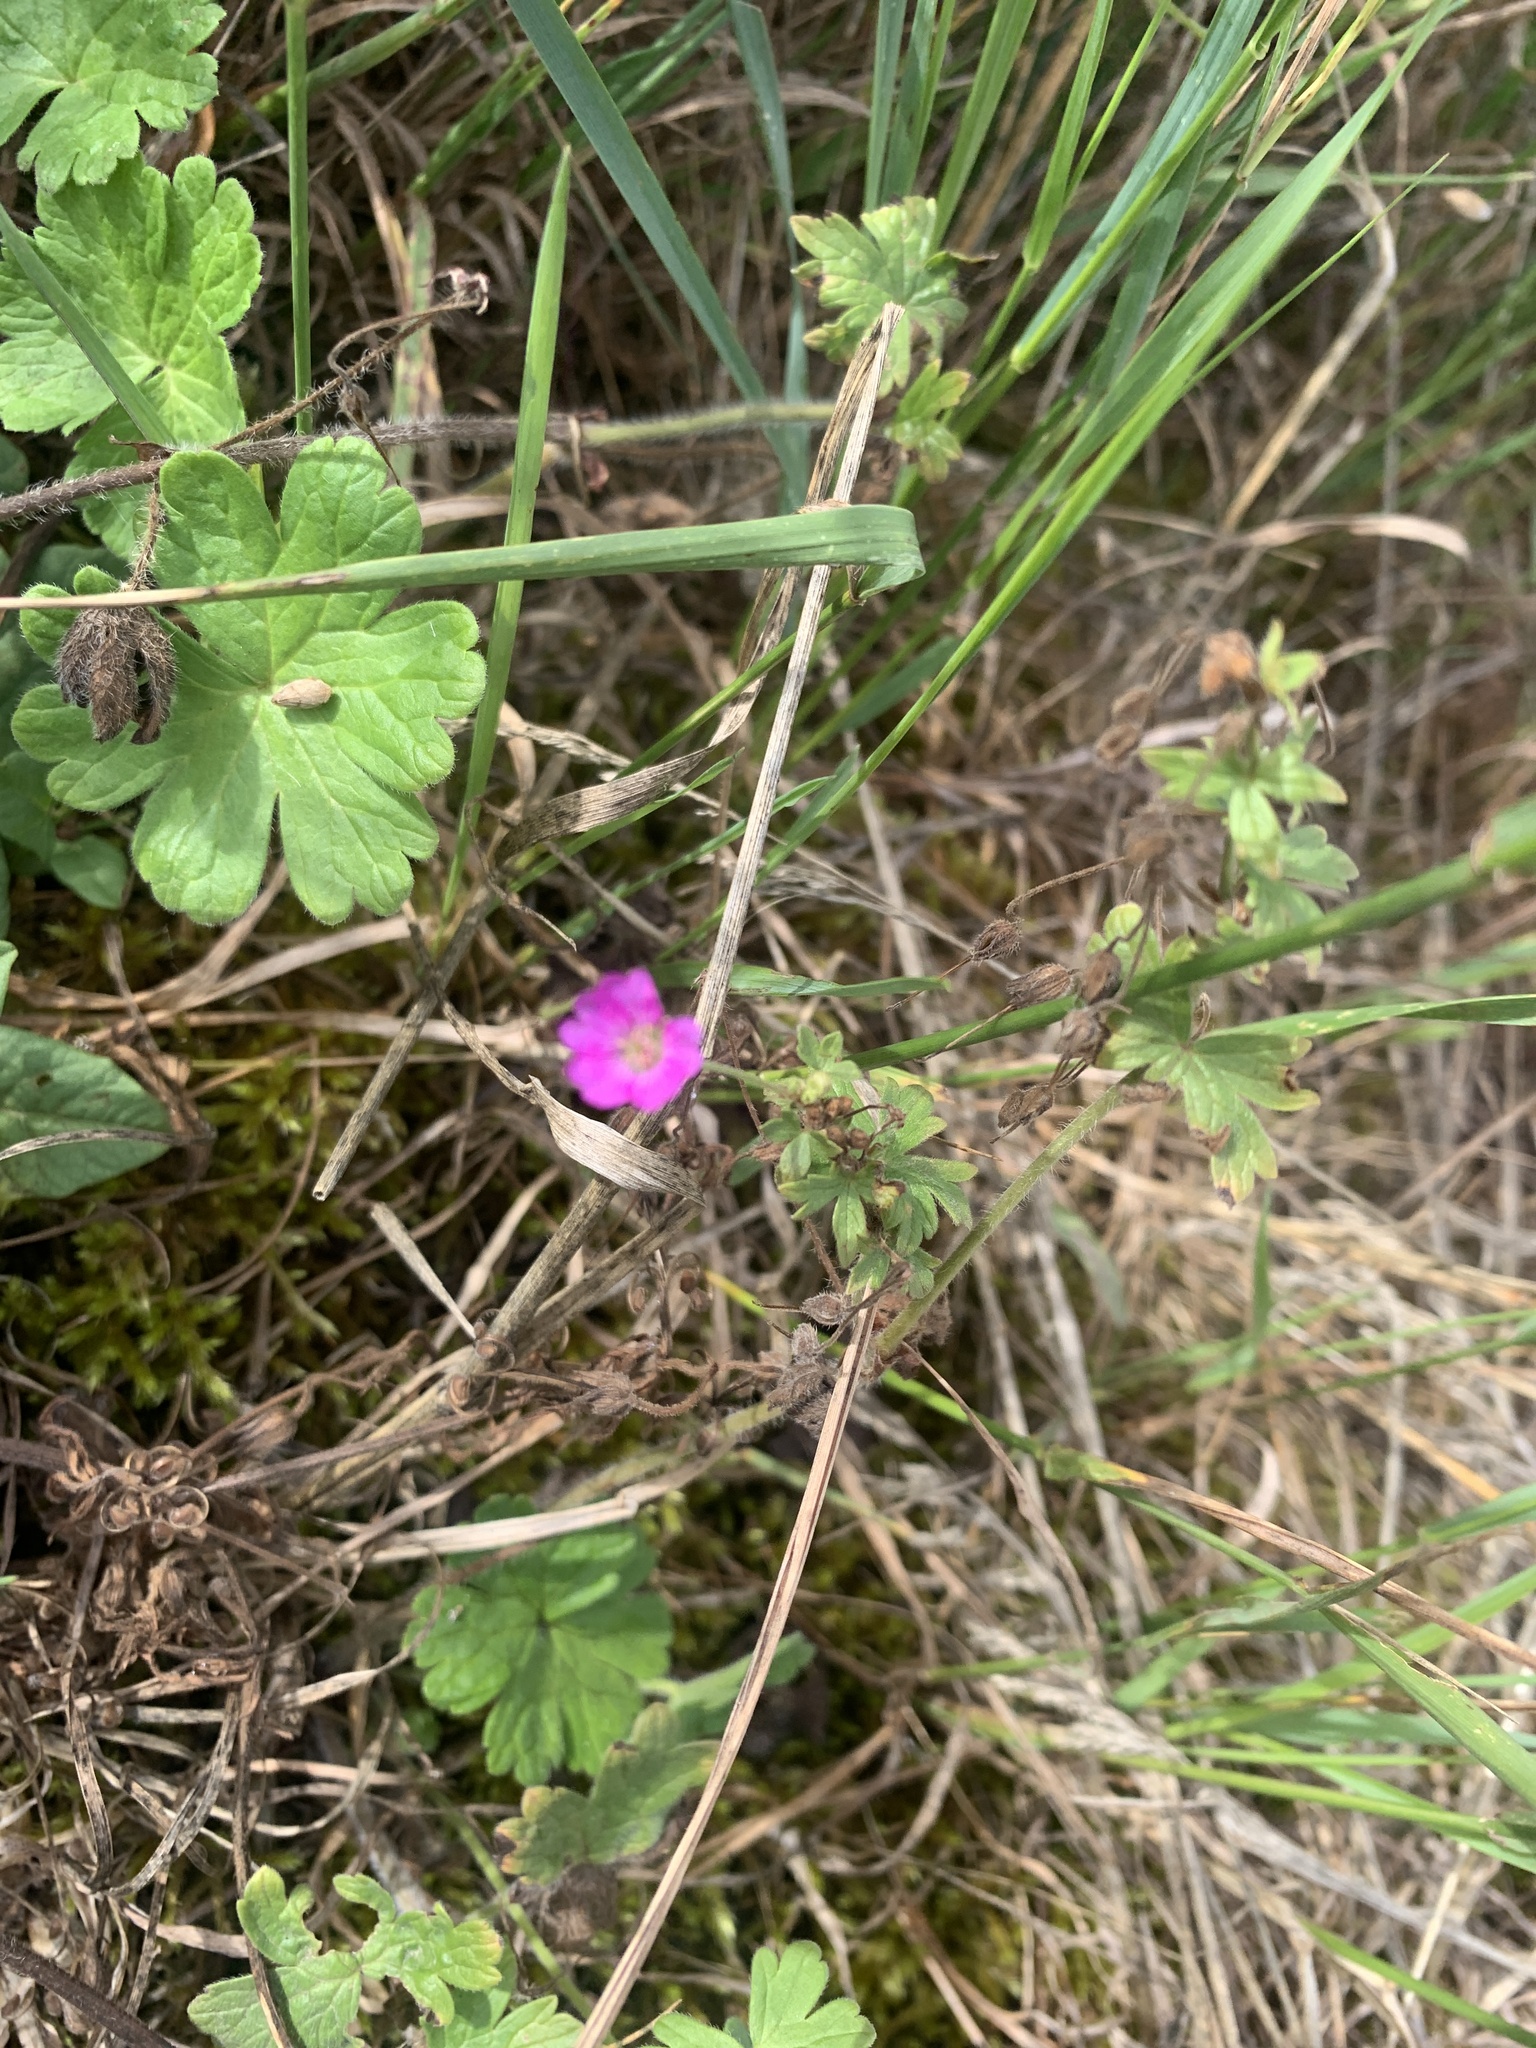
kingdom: Plantae
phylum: Tracheophyta
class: Magnoliopsida
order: Geraniales
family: Geraniaceae
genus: Geranium
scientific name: Geranium core-core
